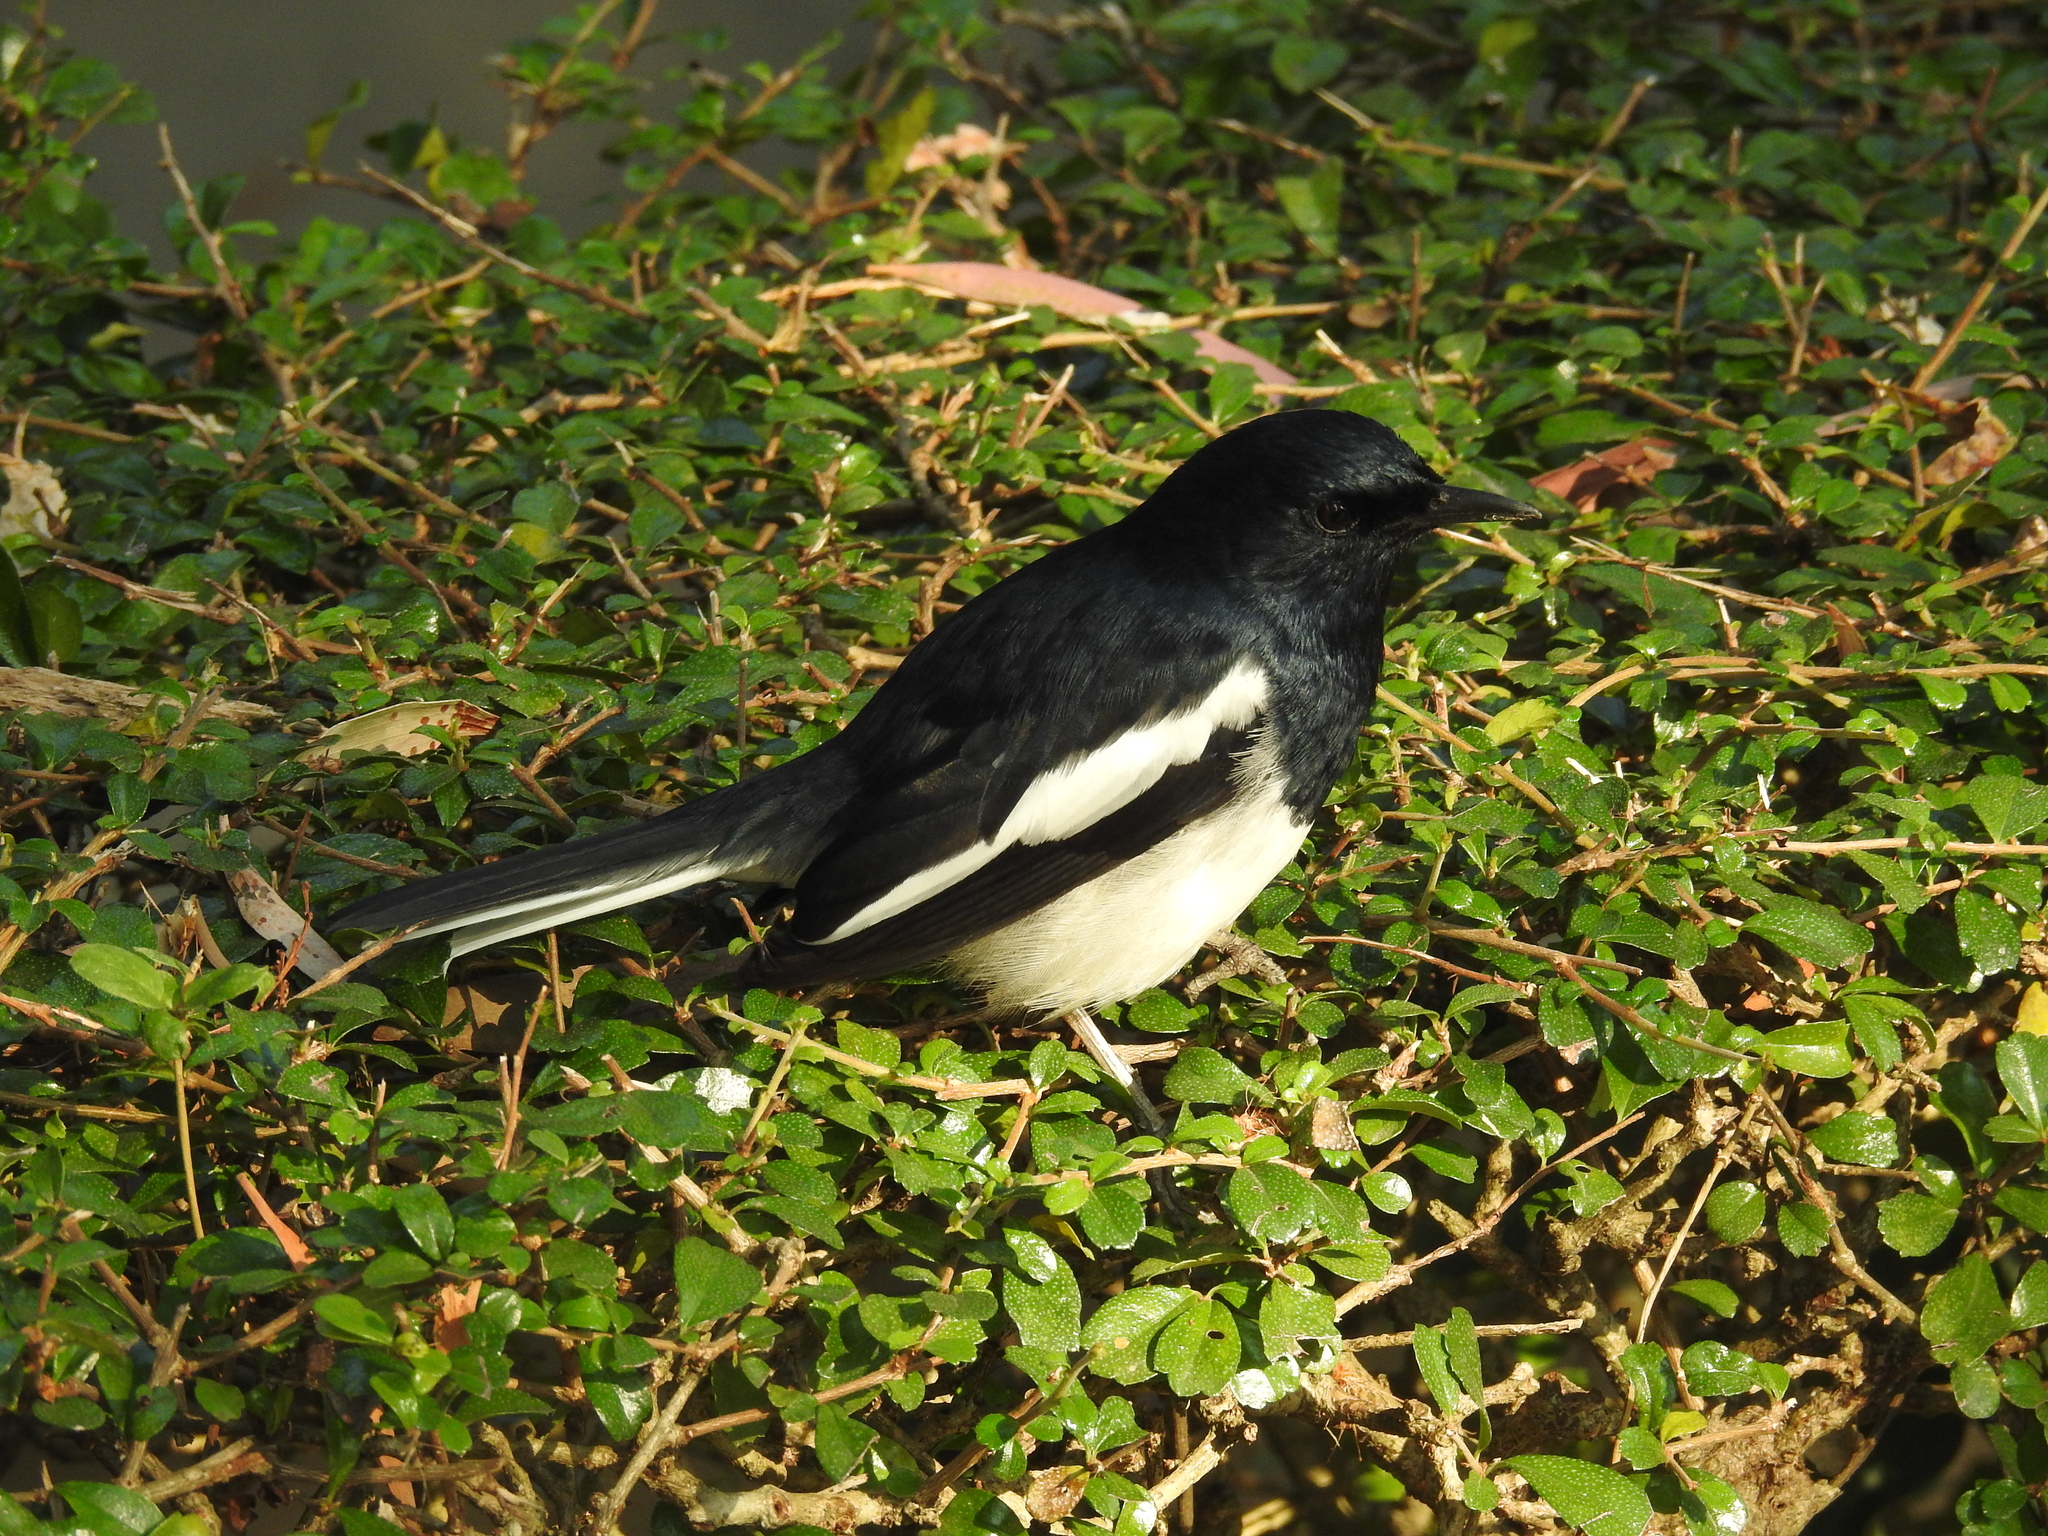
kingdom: Animalia
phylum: Chordata
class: Aves
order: Passeriformes
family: Muscicapidae
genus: Copsychus
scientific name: Copsychus saularis
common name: Oriental magpie-robin
